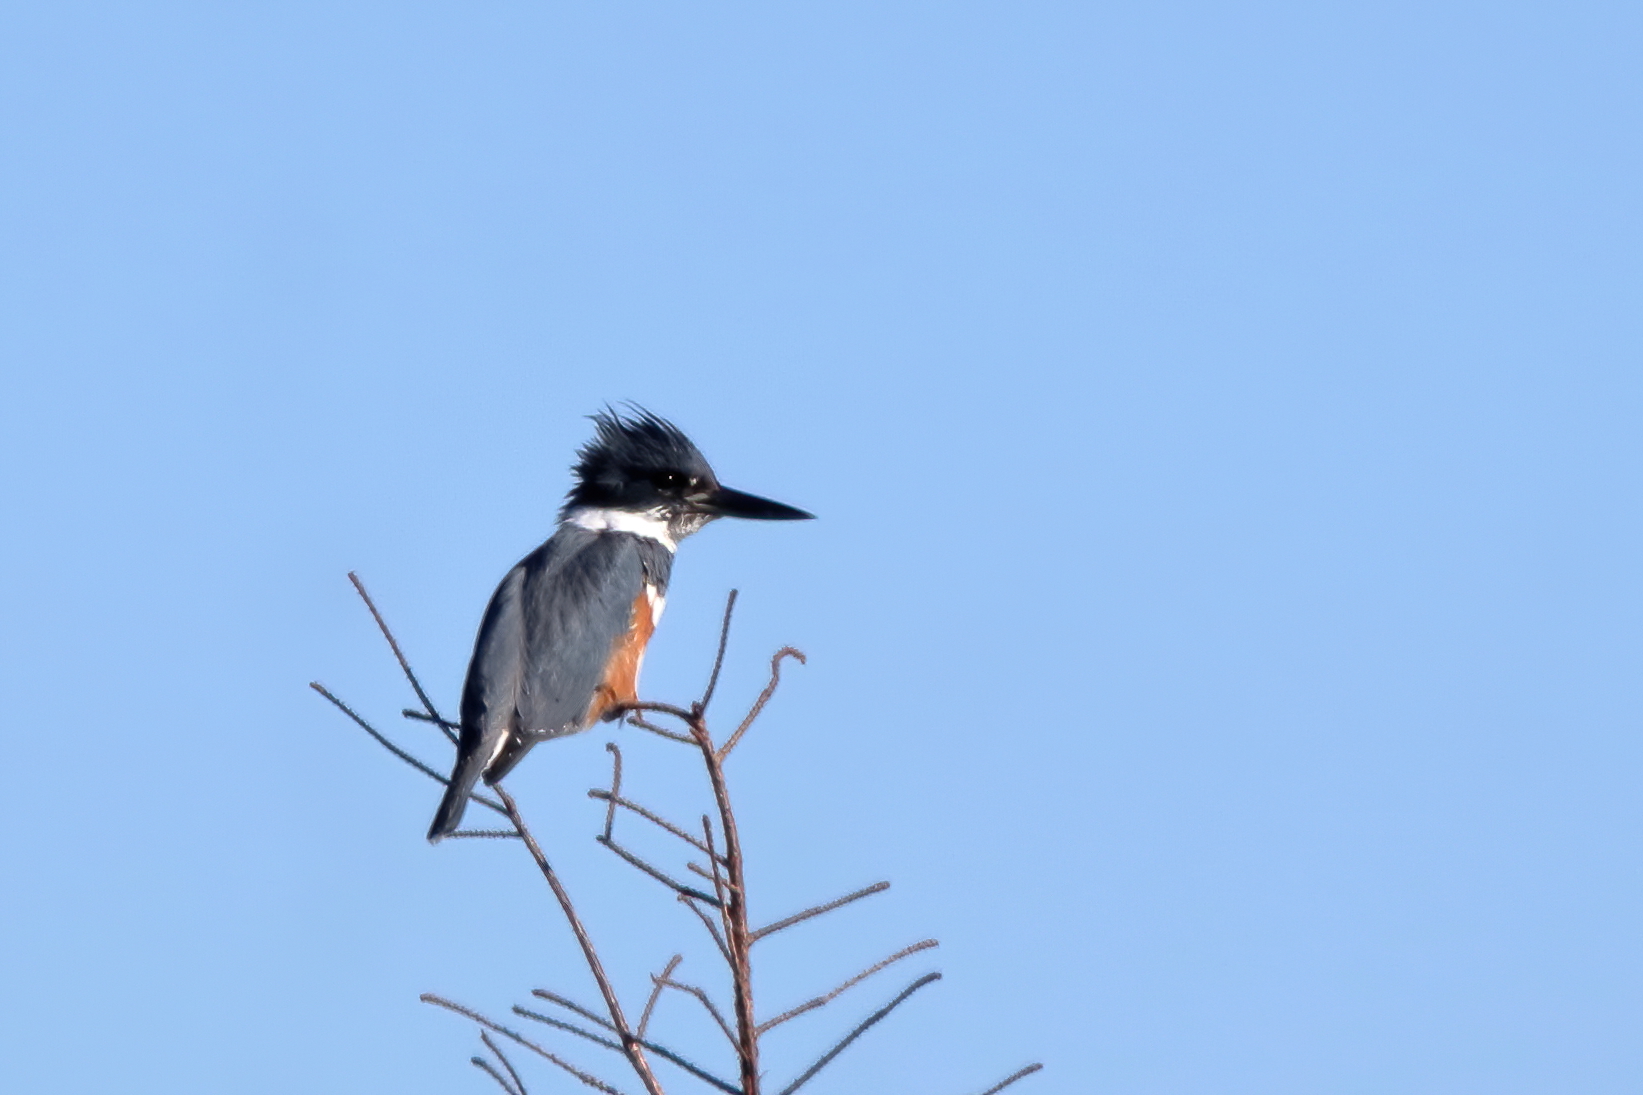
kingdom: Animalia
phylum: Chordata
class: Aves
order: Coraciiformes
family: Alcedinidae
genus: Megaceryle
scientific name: Megaceryle alcyon
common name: Belted kingfisher
